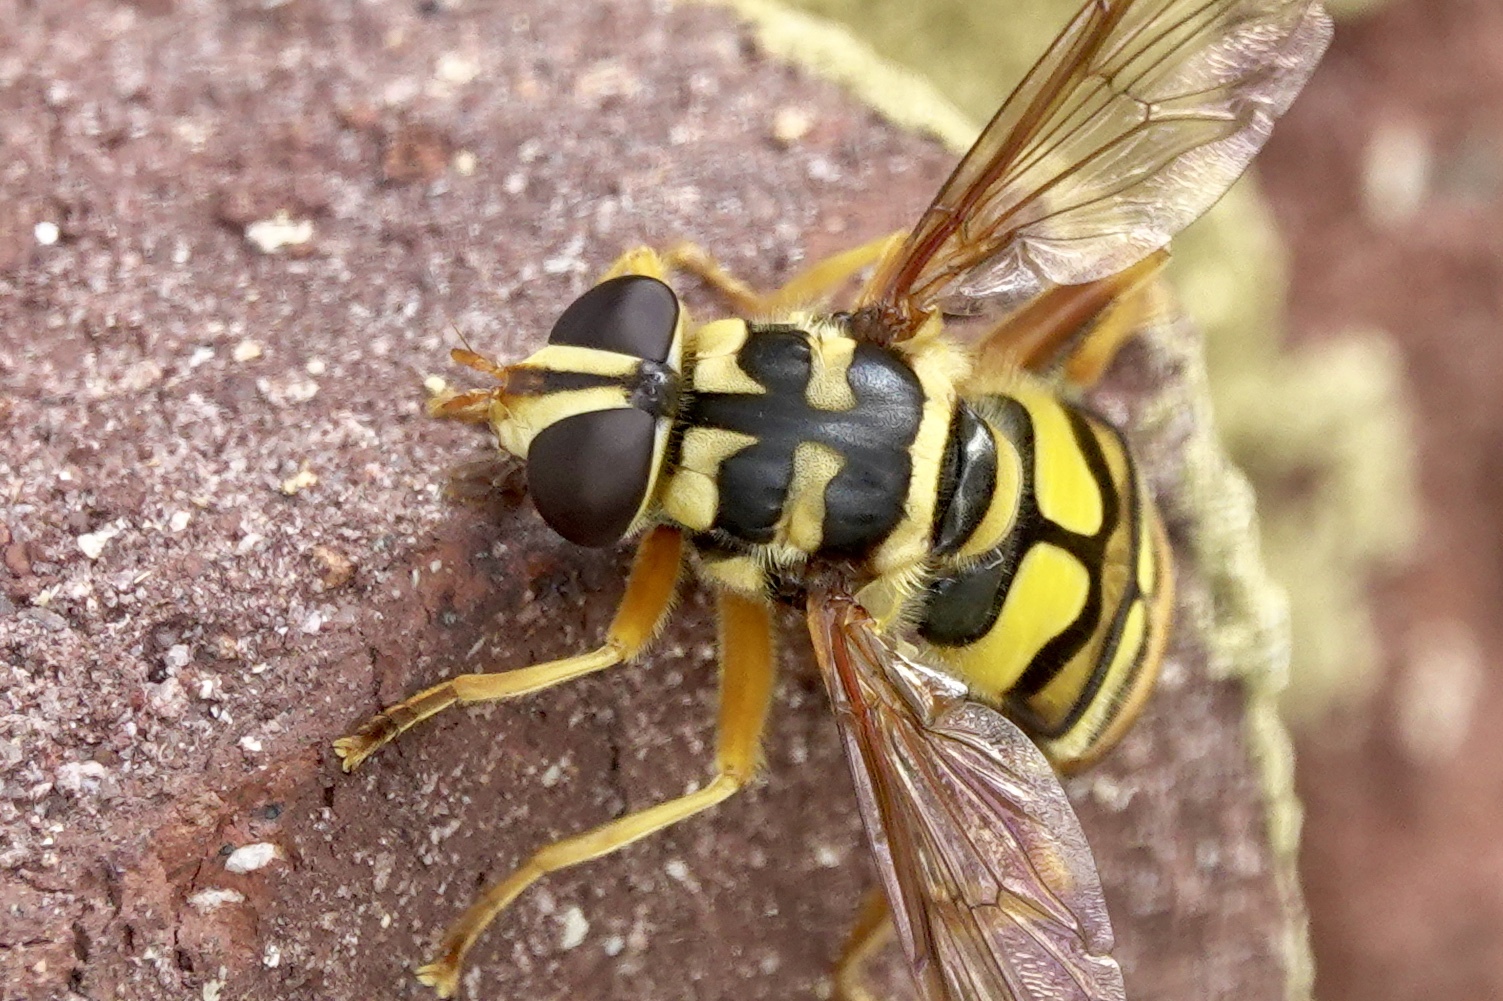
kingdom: Animalia
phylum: Arthropoda
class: Insecta
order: Diptera
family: Syrphidae
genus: Milesia
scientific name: Milesia virginiensis
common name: Virginia giant
